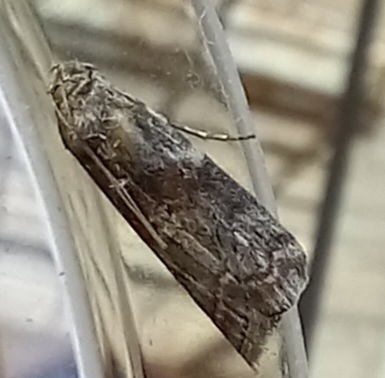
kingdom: Animalia
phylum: Arthropoda
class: Insecta
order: Lepidoptera
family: Pyralidae
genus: Phycita
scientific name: Phycita roborella
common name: Dotted oak knot-horn
